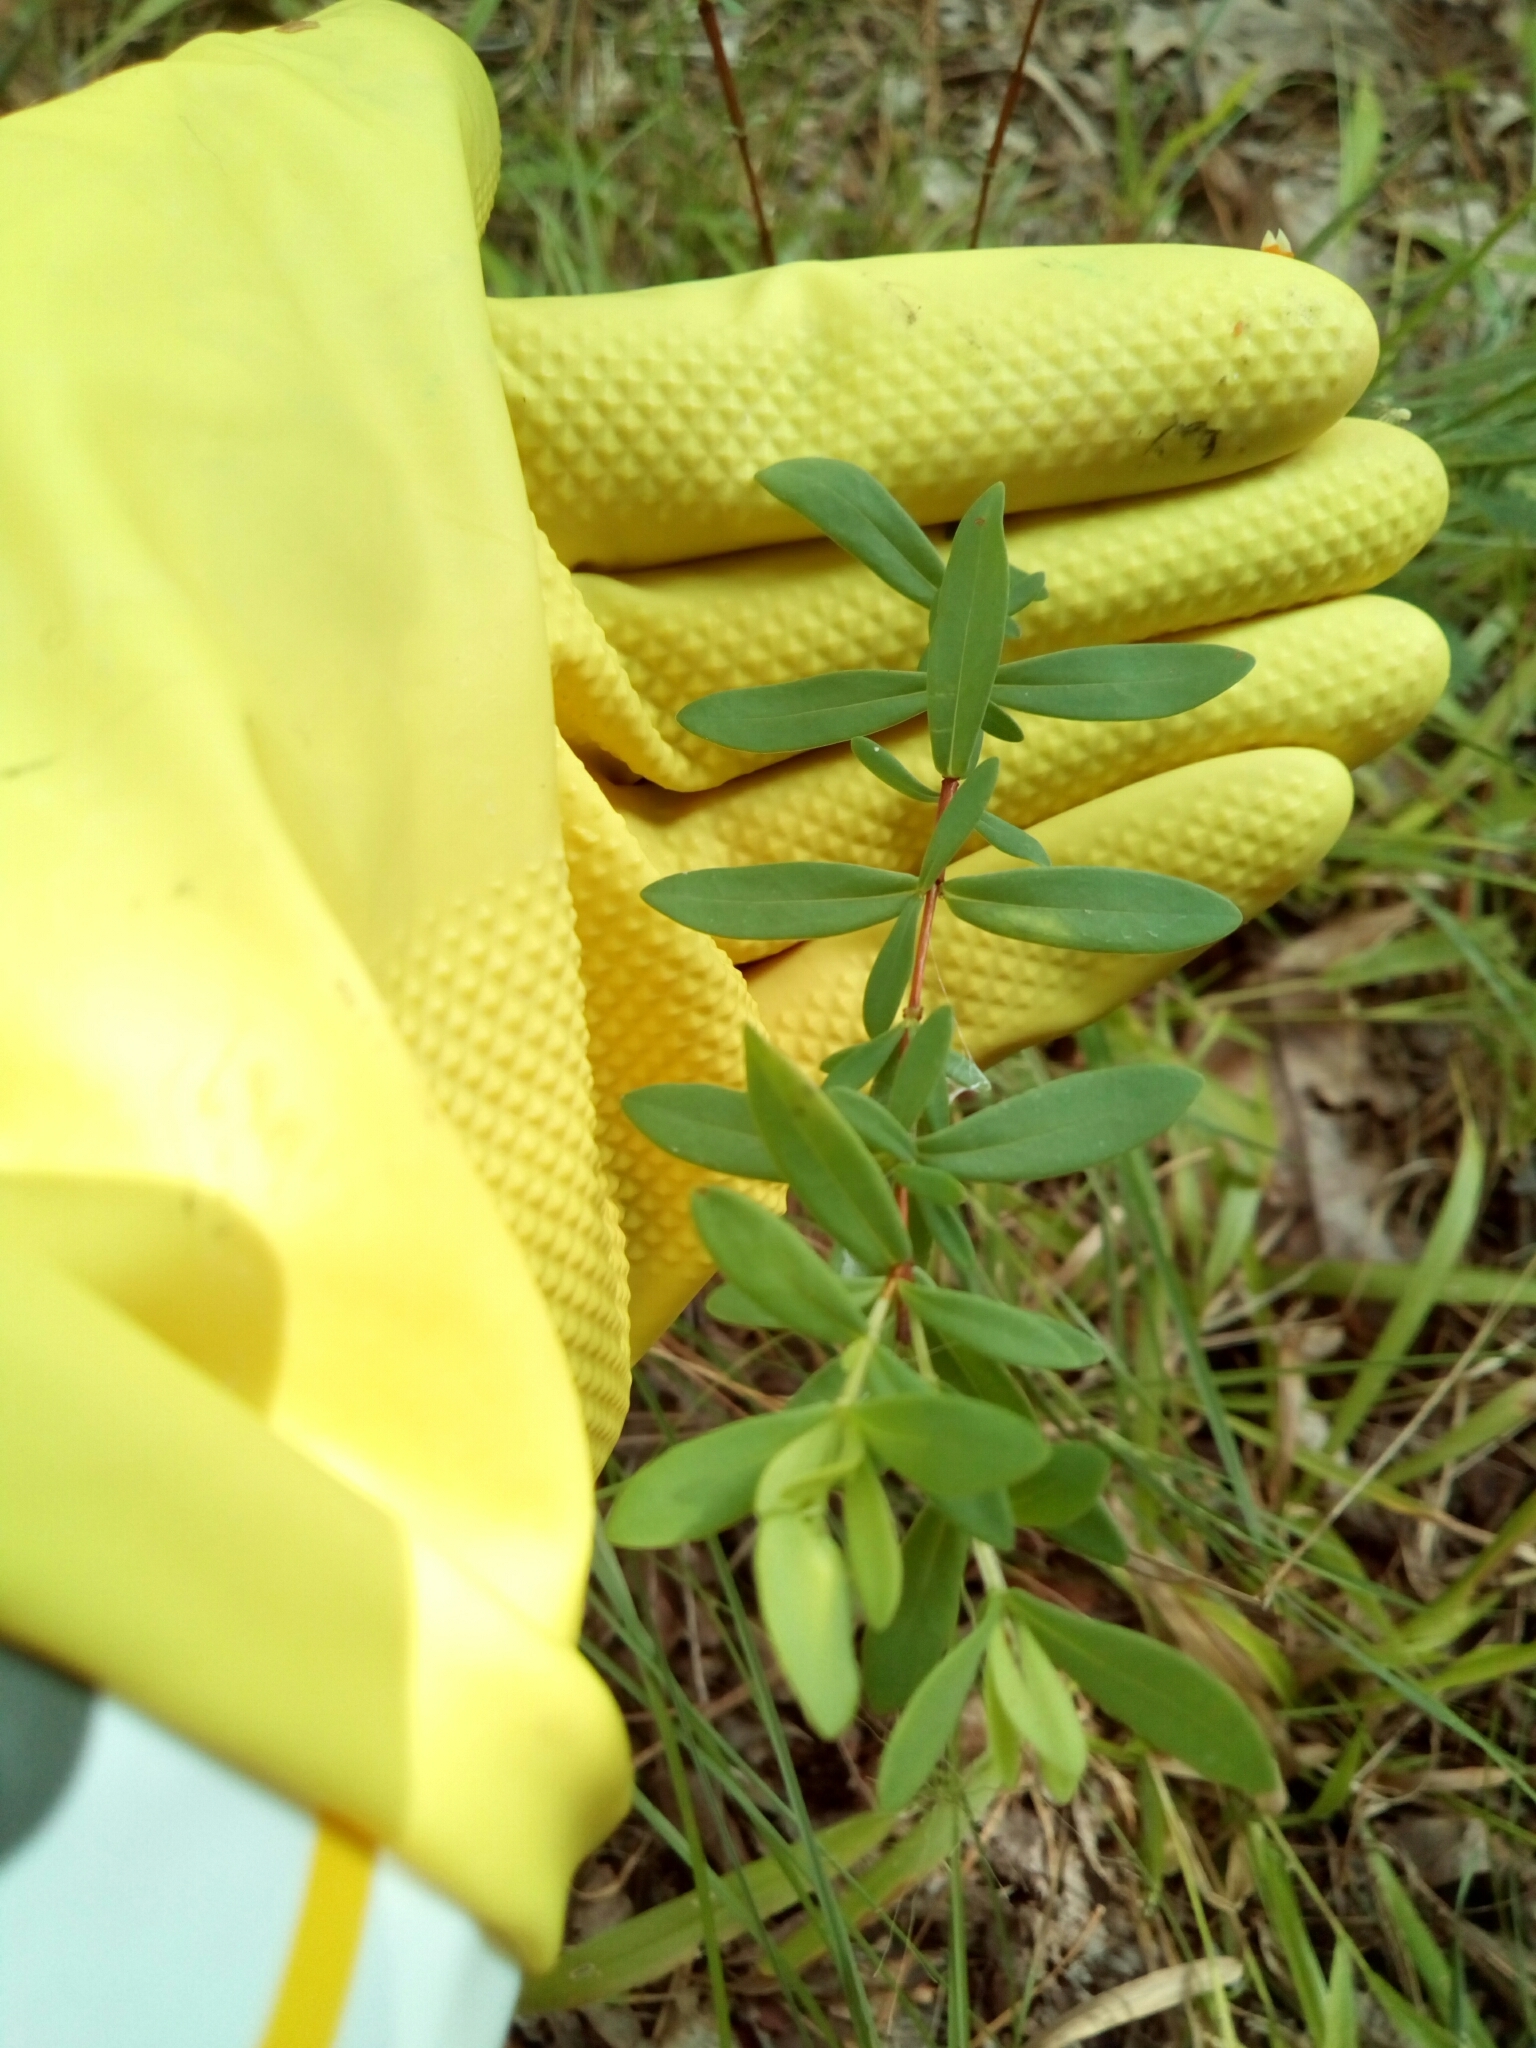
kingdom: Plantae
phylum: Tracheophyta
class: Magnoliopsida
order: Malpighiales
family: Hypericaceae
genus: Hypericum
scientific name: Hypericum hypericoides
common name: St. andrew's cross
